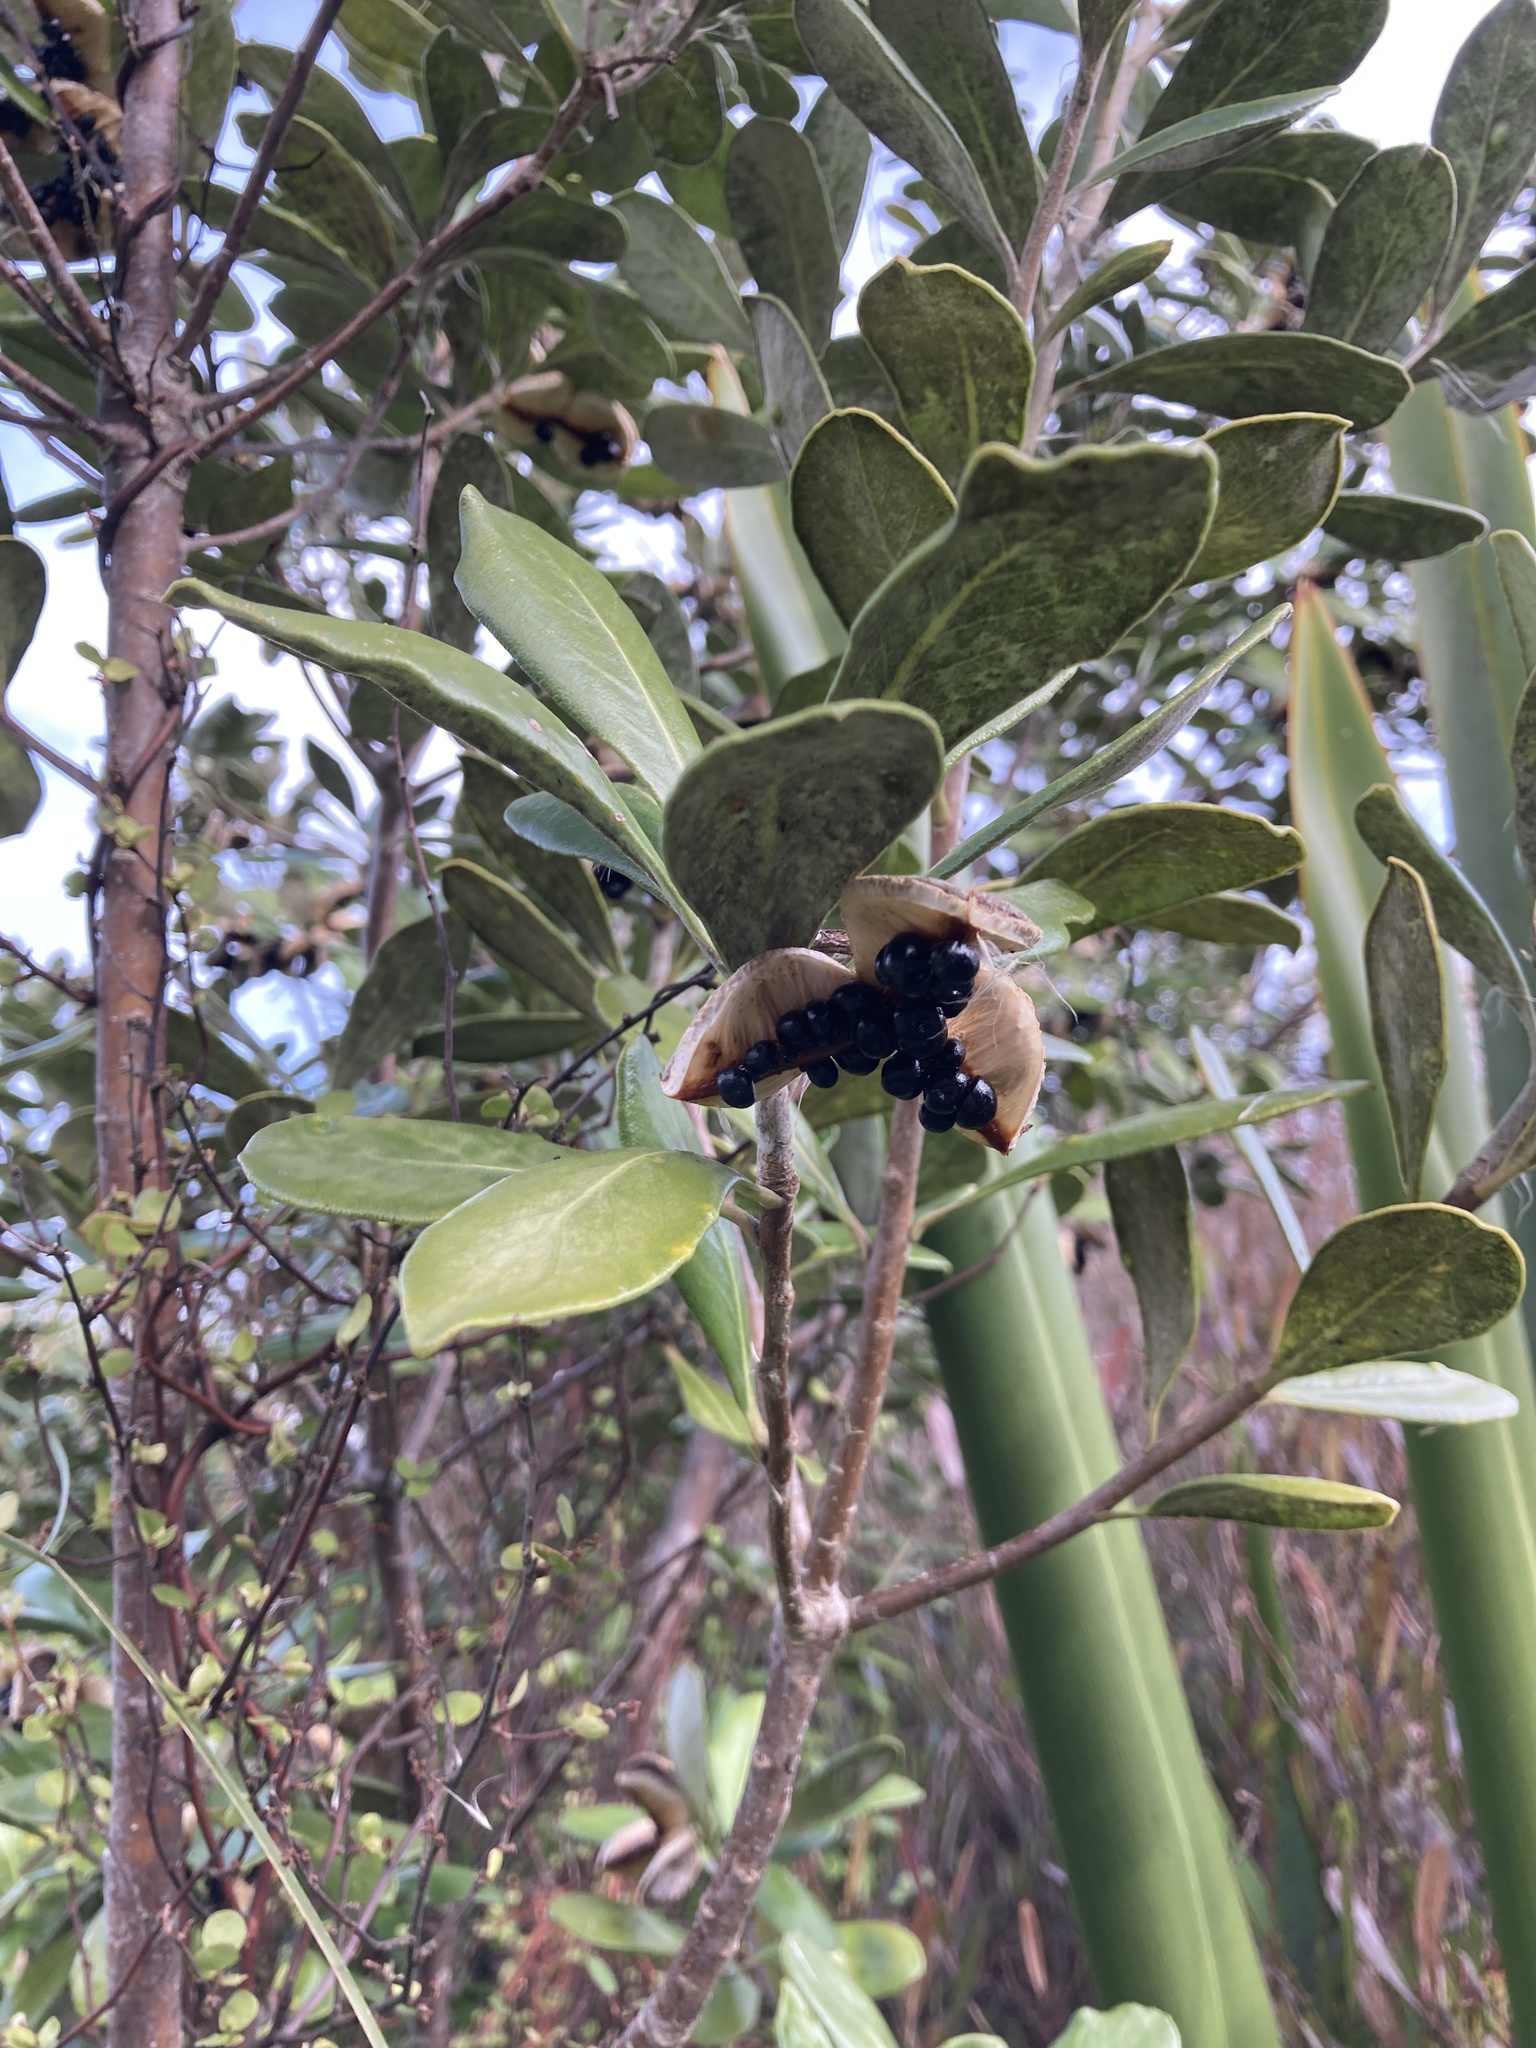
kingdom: Plantae
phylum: Tracheophyta
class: Magnoliopsida
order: Apiales
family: Pittosporaceae
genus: Pittosporum
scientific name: Pittosporum crassifolium
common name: Karo
